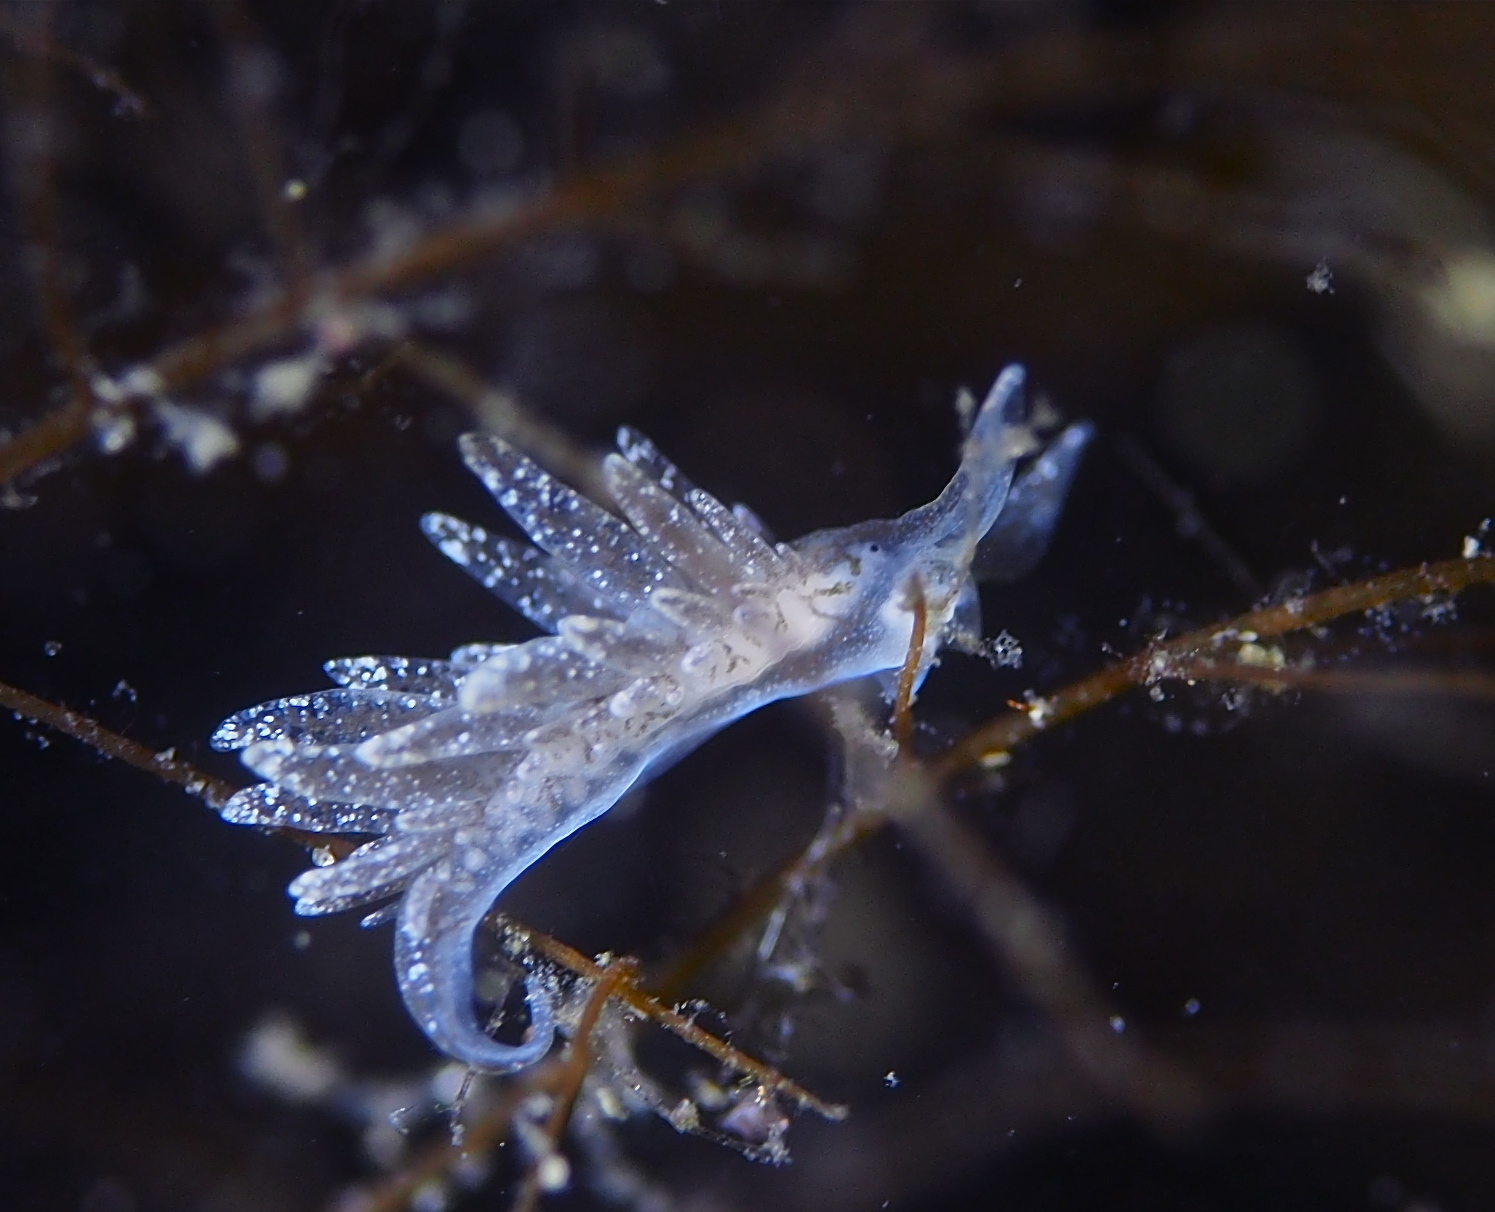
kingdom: Animalia
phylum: Mollusca
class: Gastropoda
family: Limapontiidae
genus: Placida
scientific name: Placida dendritica
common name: Dendritic nudibranch
